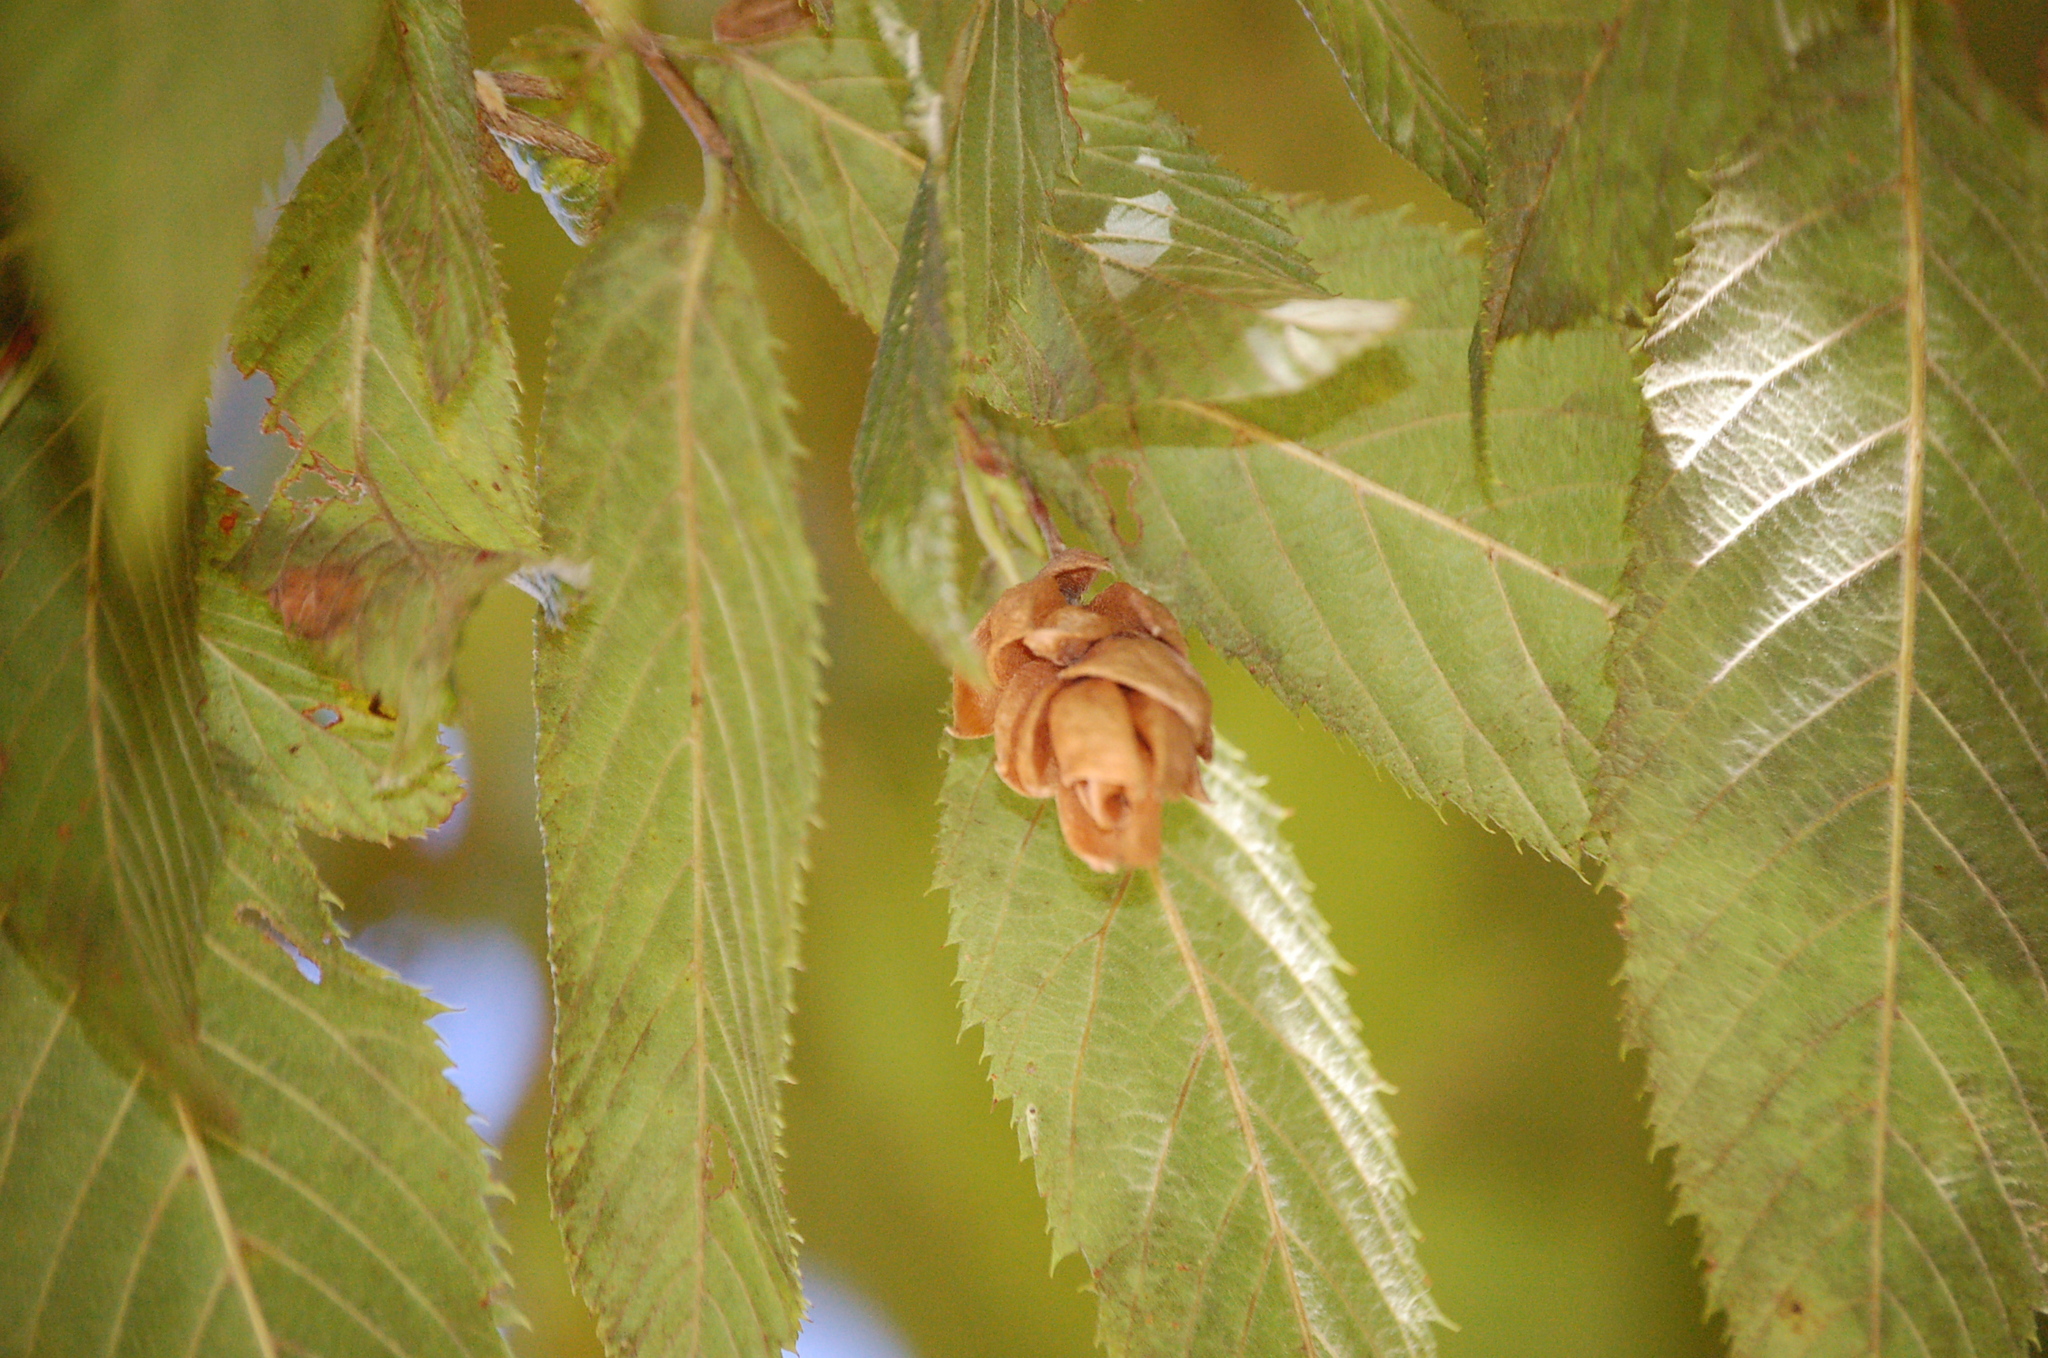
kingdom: Plantae
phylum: Tracheophyta
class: Magnoliopsida
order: Fagales
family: Betulaceae
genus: Ostrya
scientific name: Ostrya virginiana
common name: Ironwood
